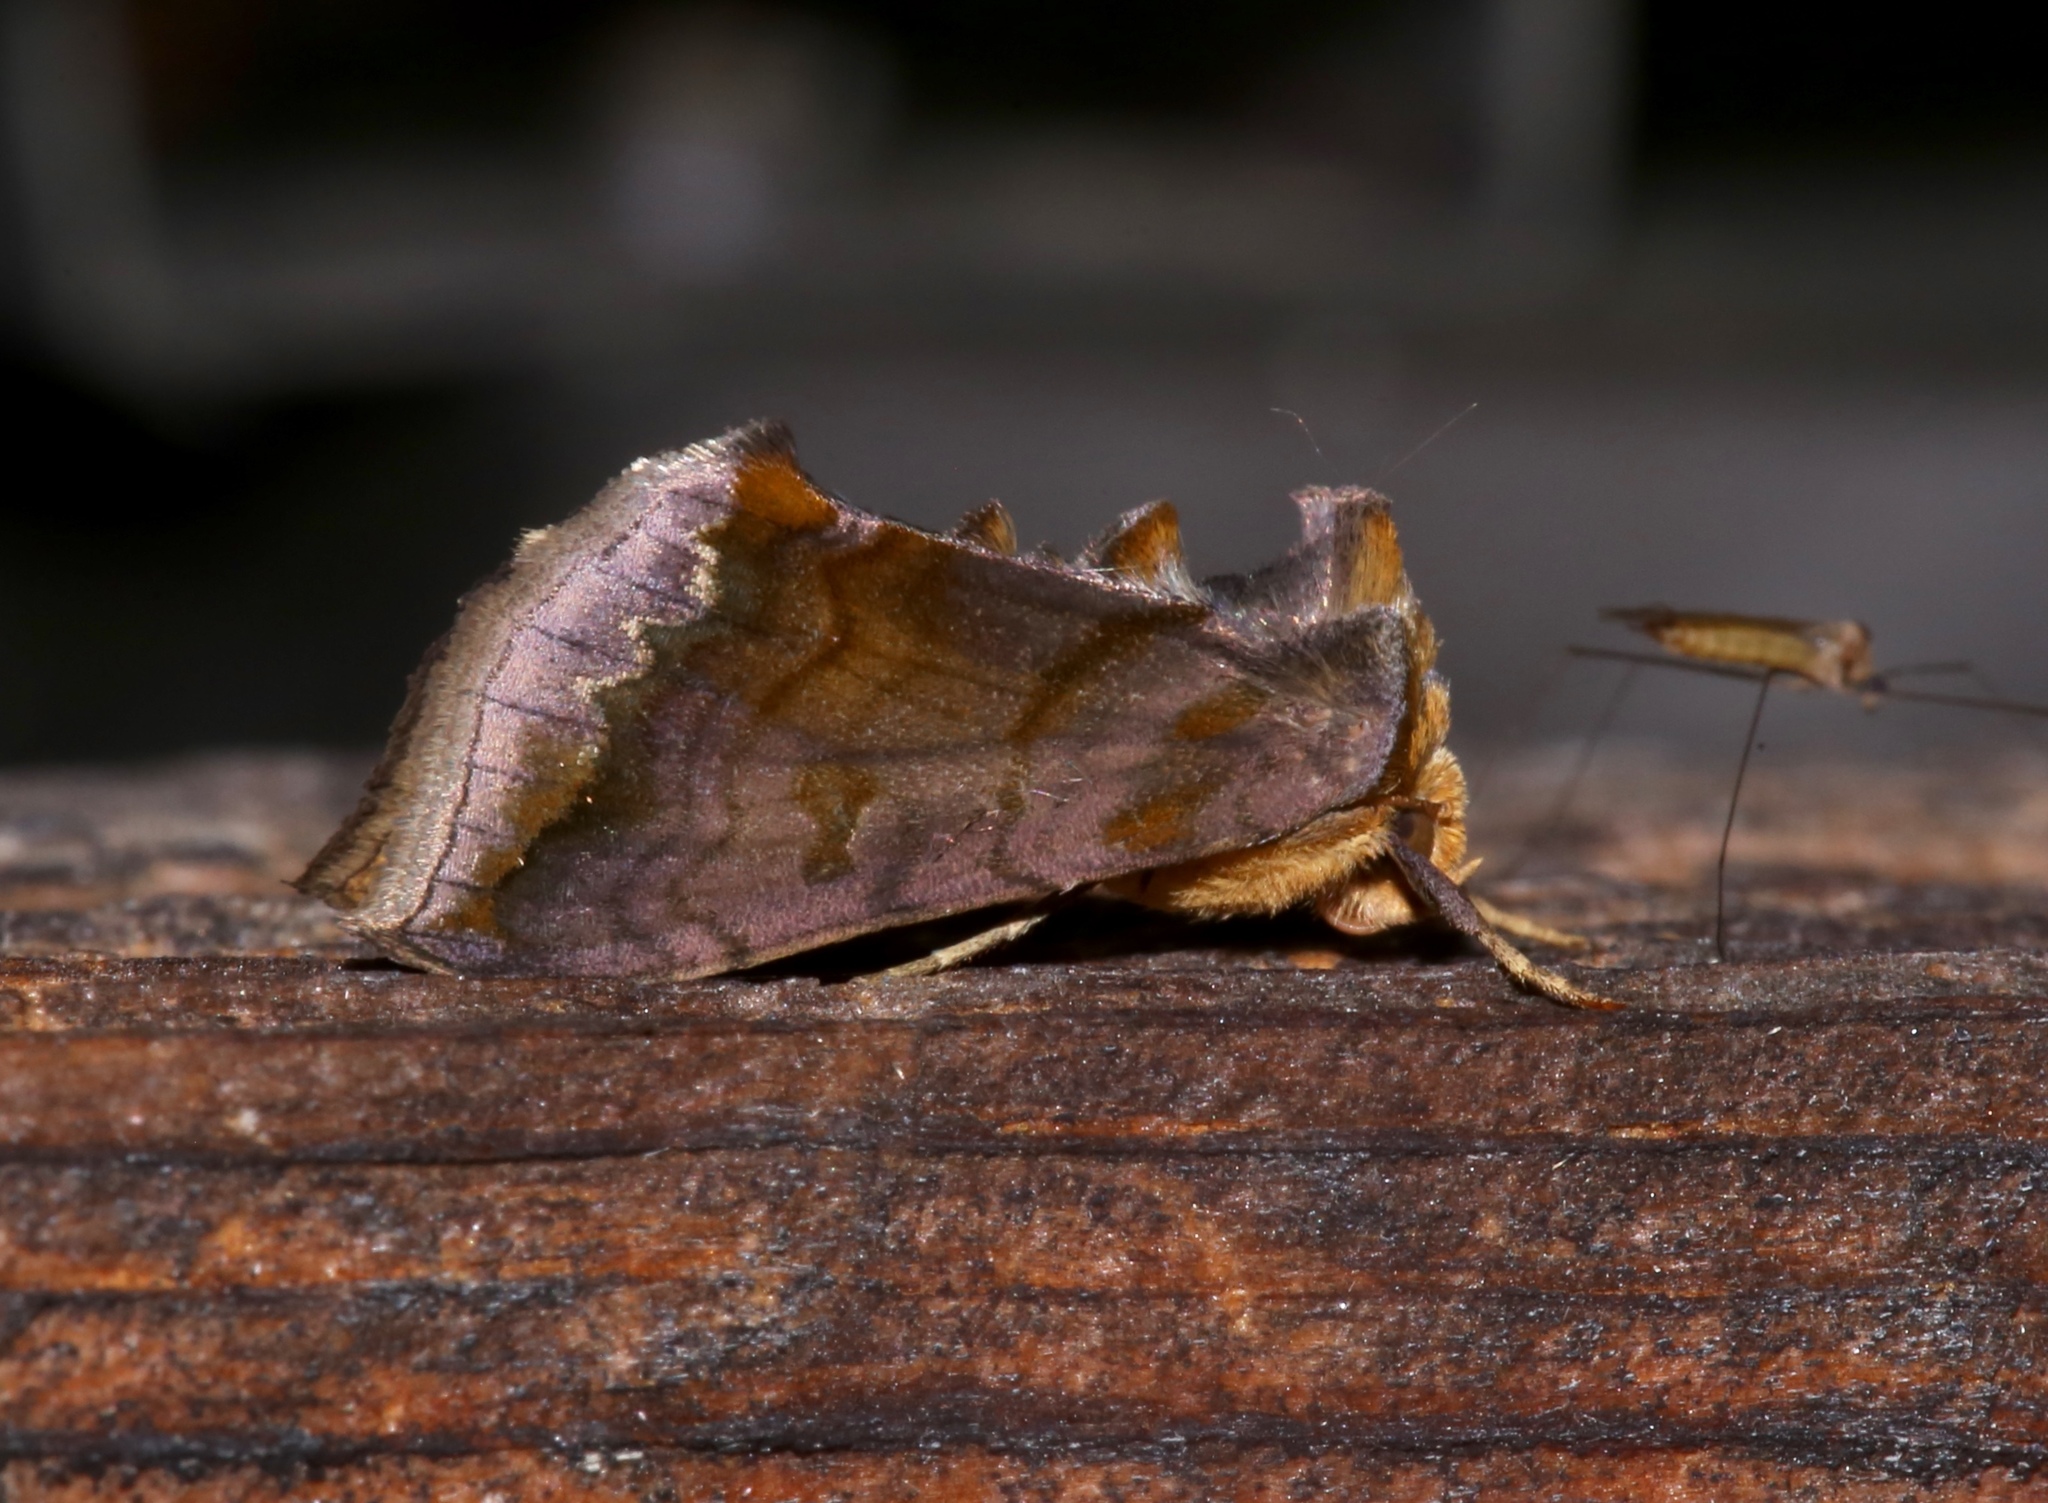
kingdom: Animalia
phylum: Arthropoda
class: Insecta
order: Lepidoptera
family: Noctuidae
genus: Allagrapha
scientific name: Allagrapha aerea
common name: Unspotted looper moth
